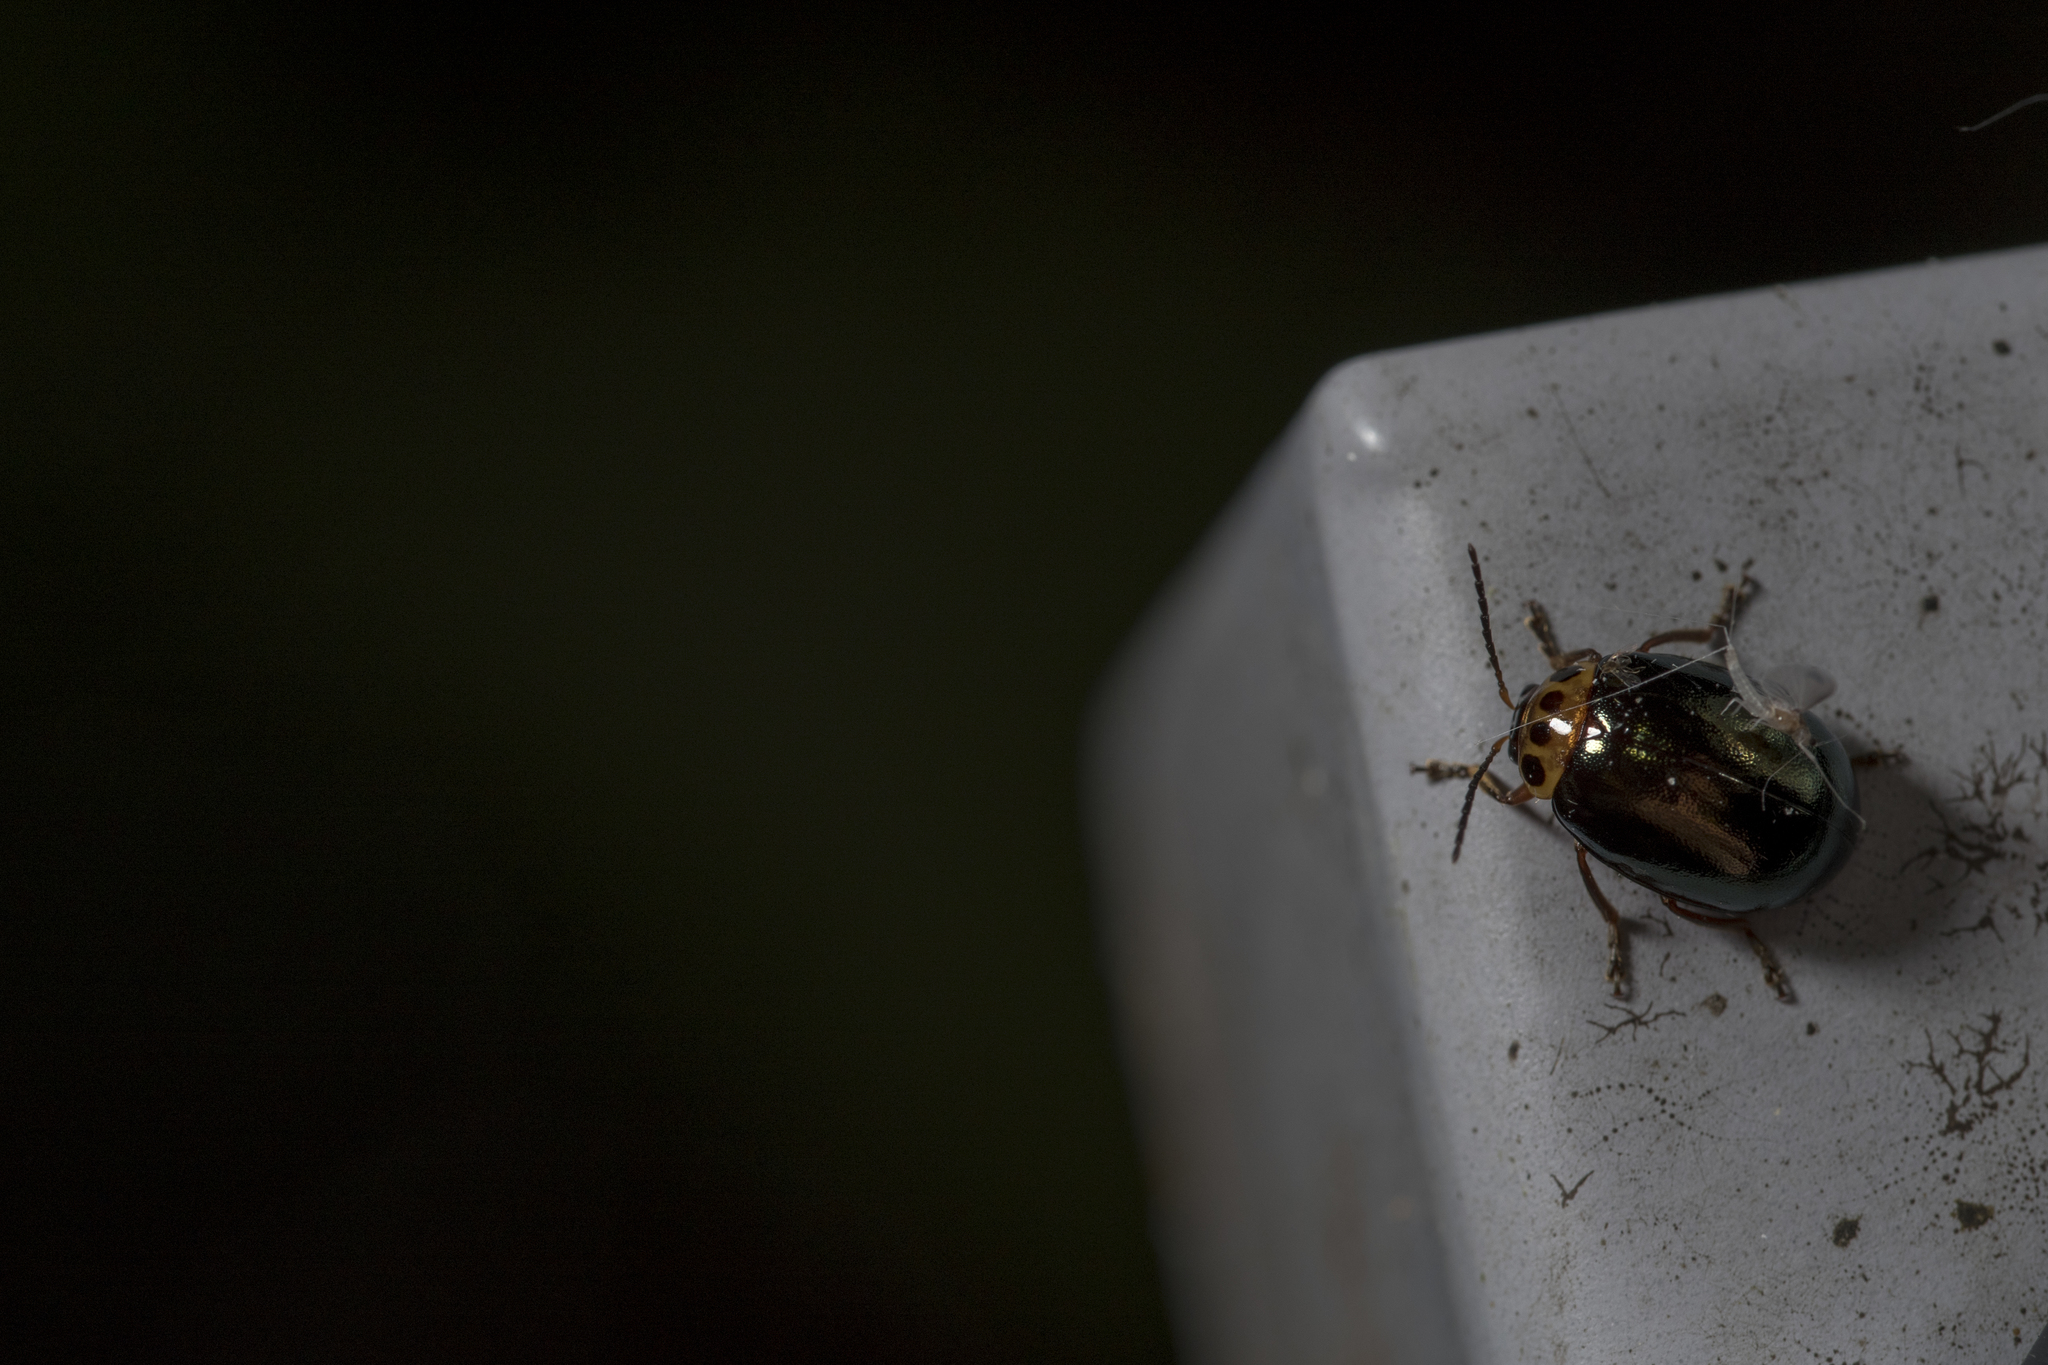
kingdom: Animalia
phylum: Arthropoda
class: Insecta
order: Coleoptera
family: Chrysomelidae
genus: Morphosphaera
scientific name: Morphosphaera chrysomeloides
